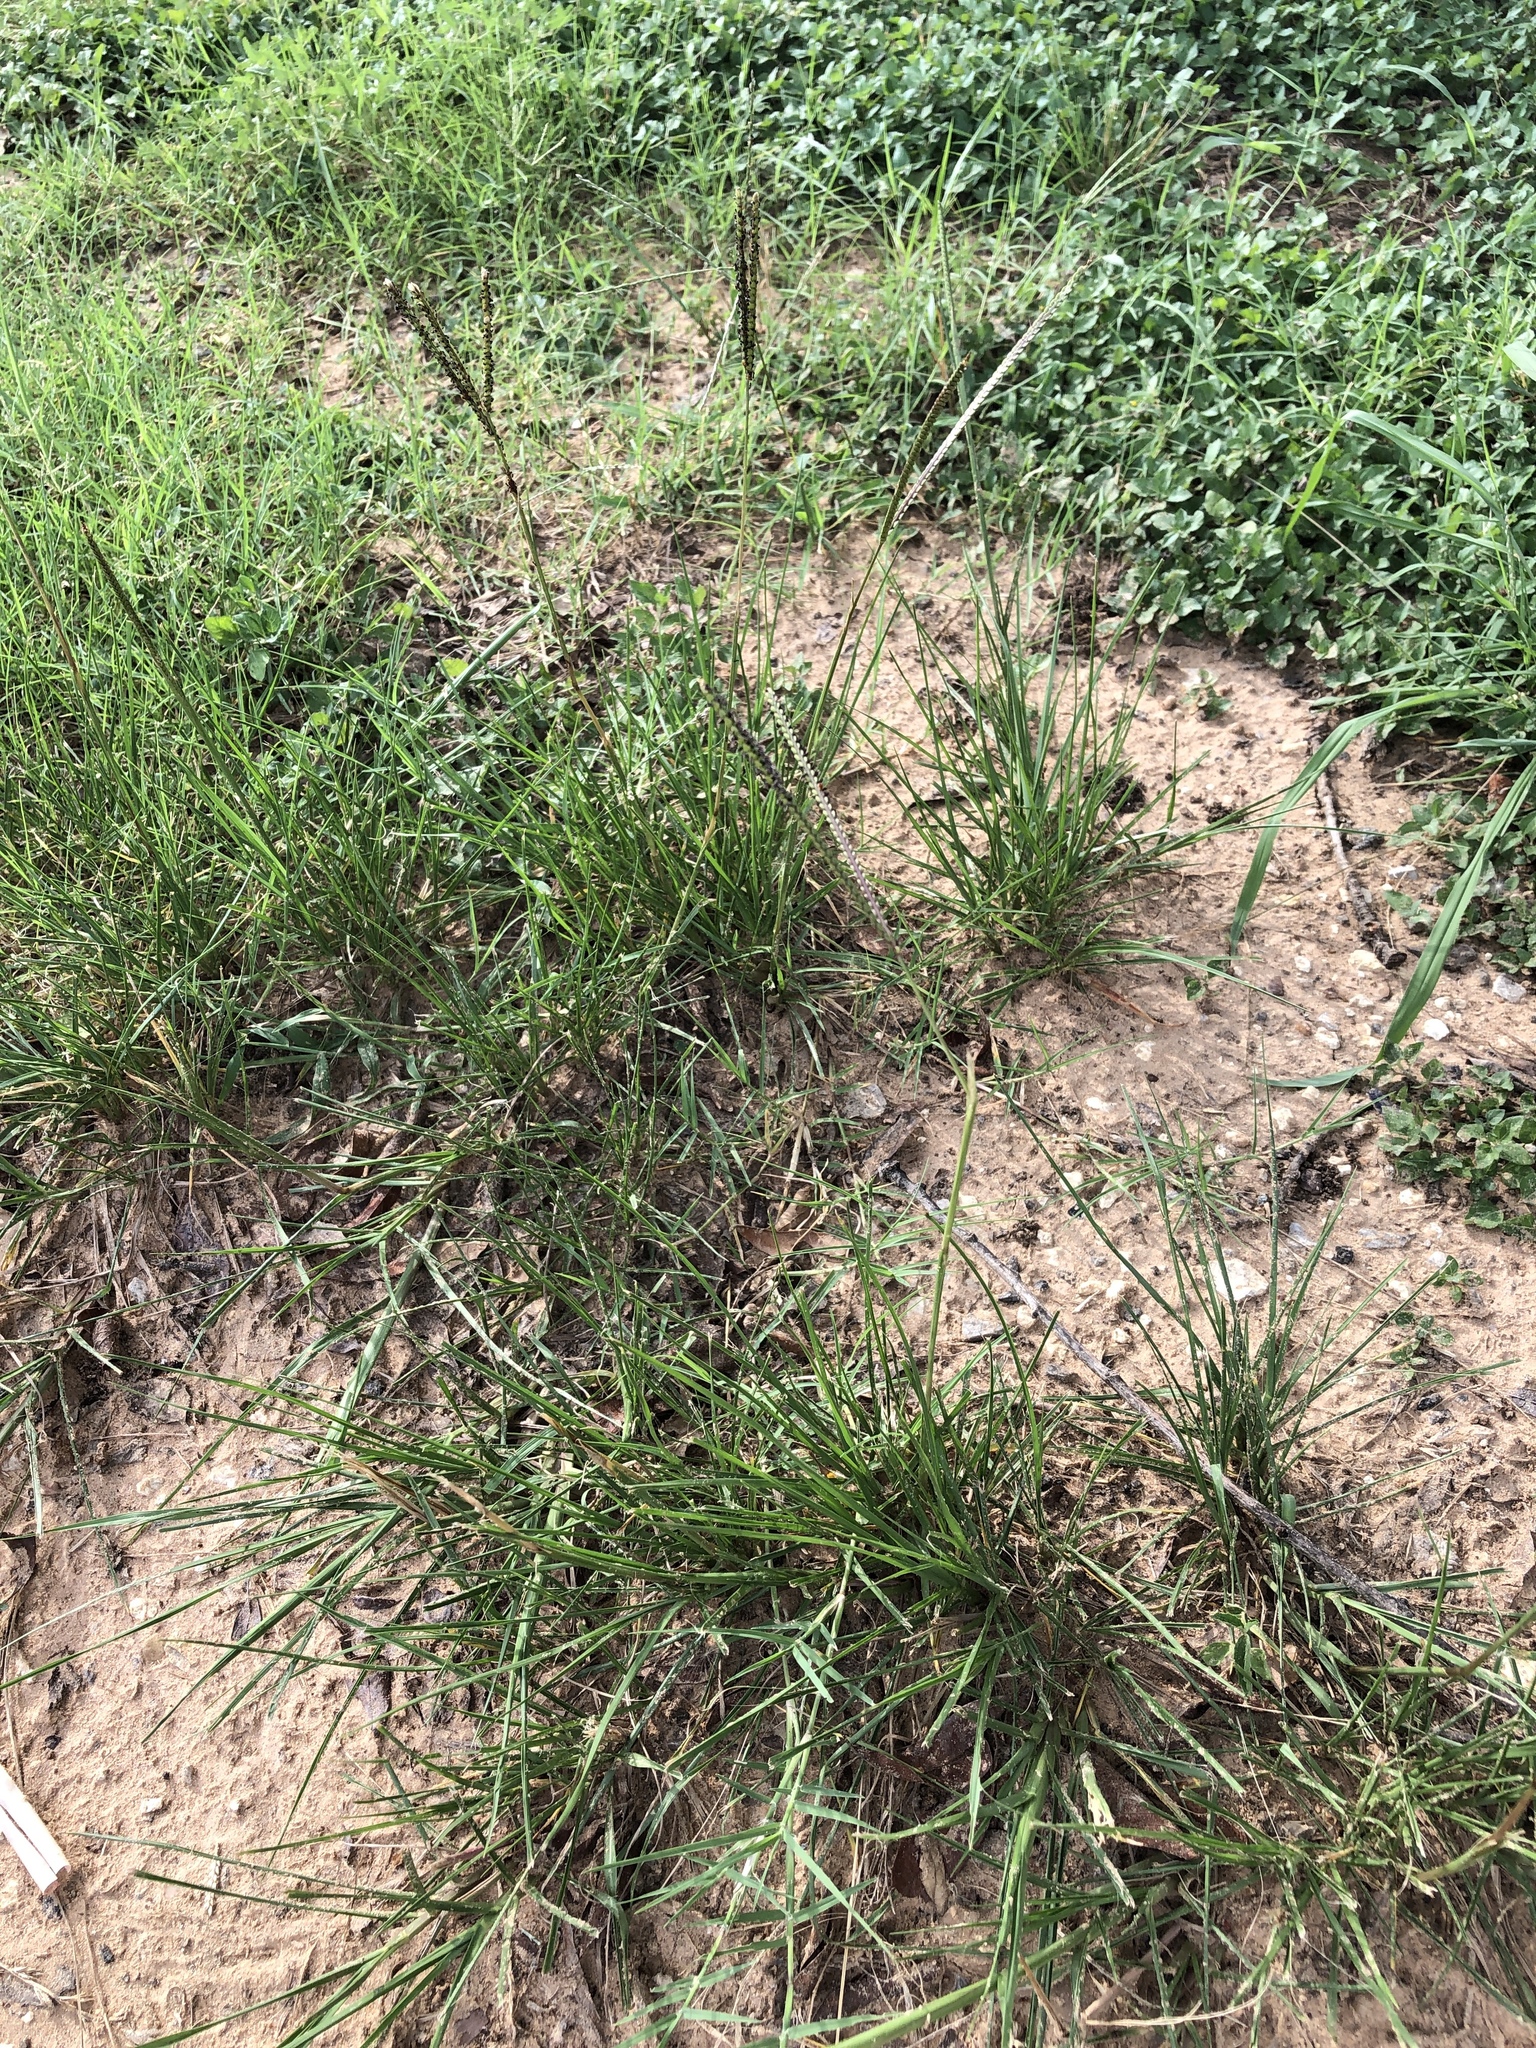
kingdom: Plantae
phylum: Tracheophyta
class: Liliopsida
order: Poales
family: Poaceae
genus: Paspalum
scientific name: Paspalum notatum
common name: Bahiagrass
